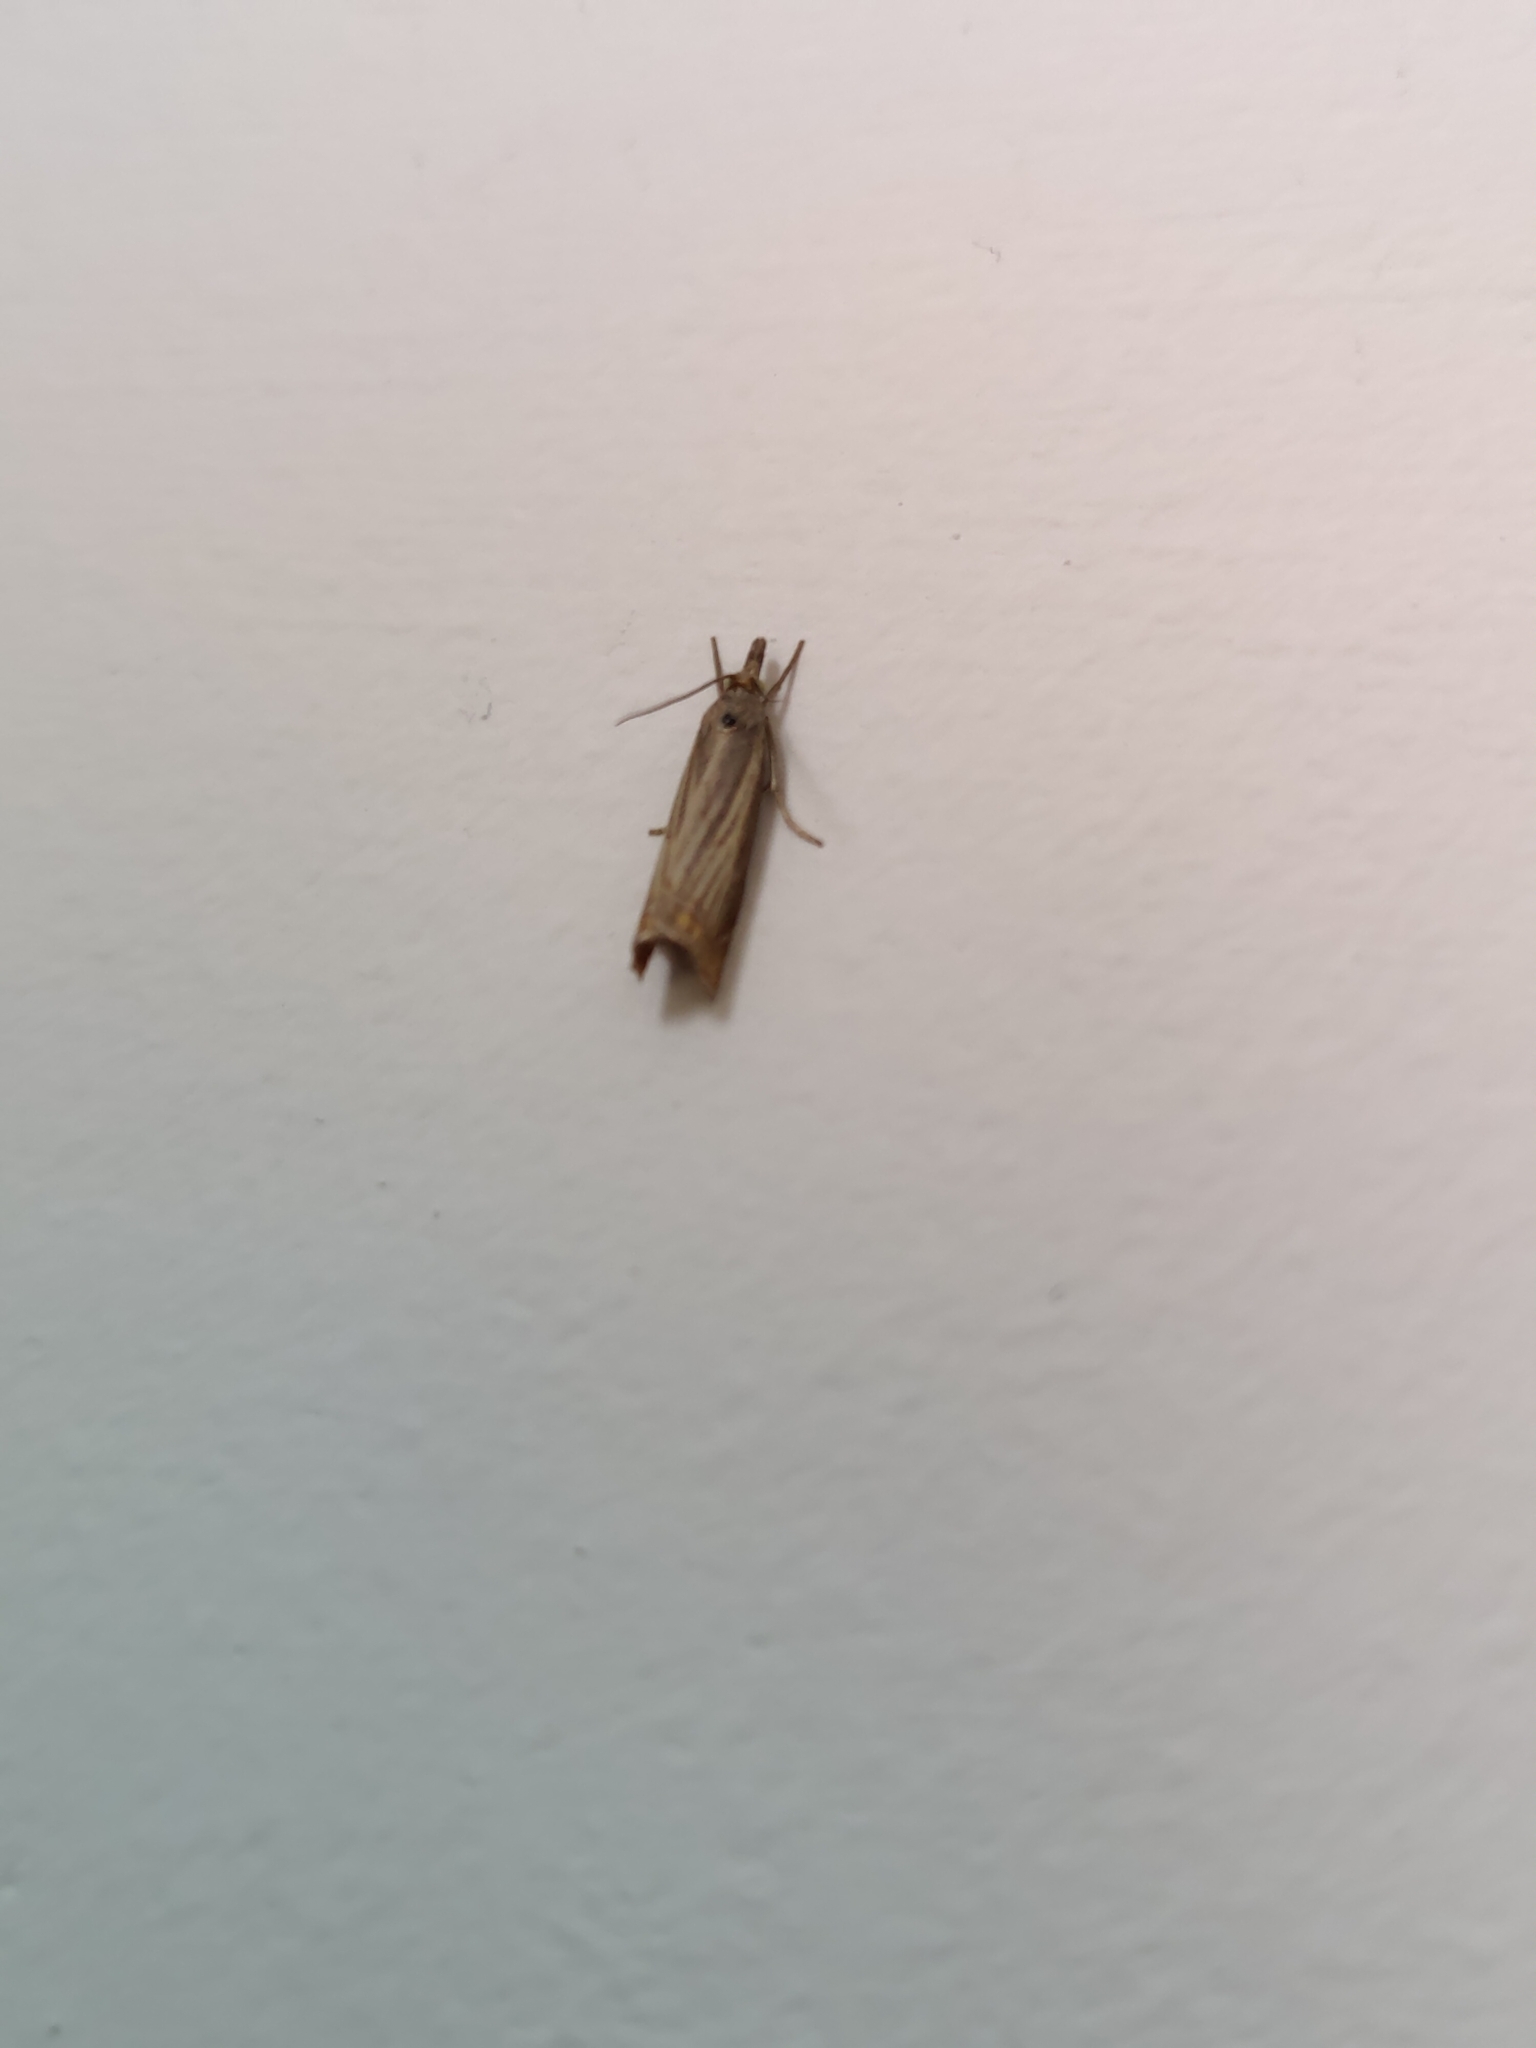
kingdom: Animalia
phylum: Arthropoda
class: Insecta
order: Lepidoptera
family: Crambidae
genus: Chrysoteuchia
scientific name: Chrysoteuchia culmella
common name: Garden grass-veneer
